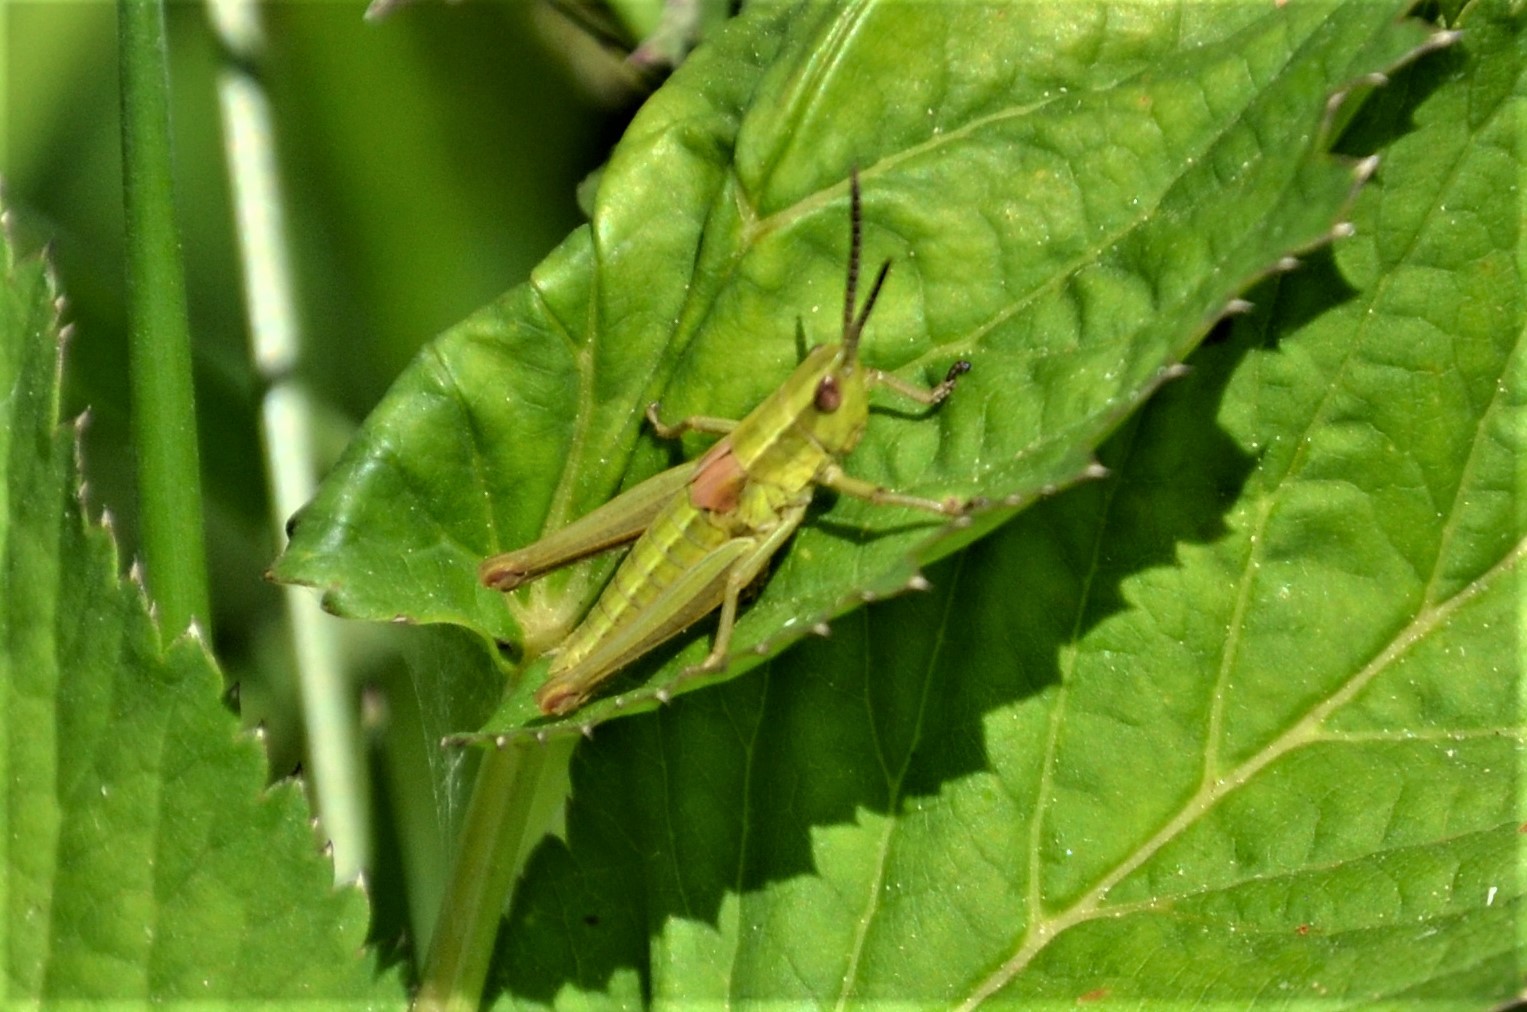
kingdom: Animalia
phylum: Arthropoda
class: Insecta
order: Orthoptera
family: Acrididae
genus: Euthystira
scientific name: Euthystira brachyptera
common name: Small gold grasshopper
